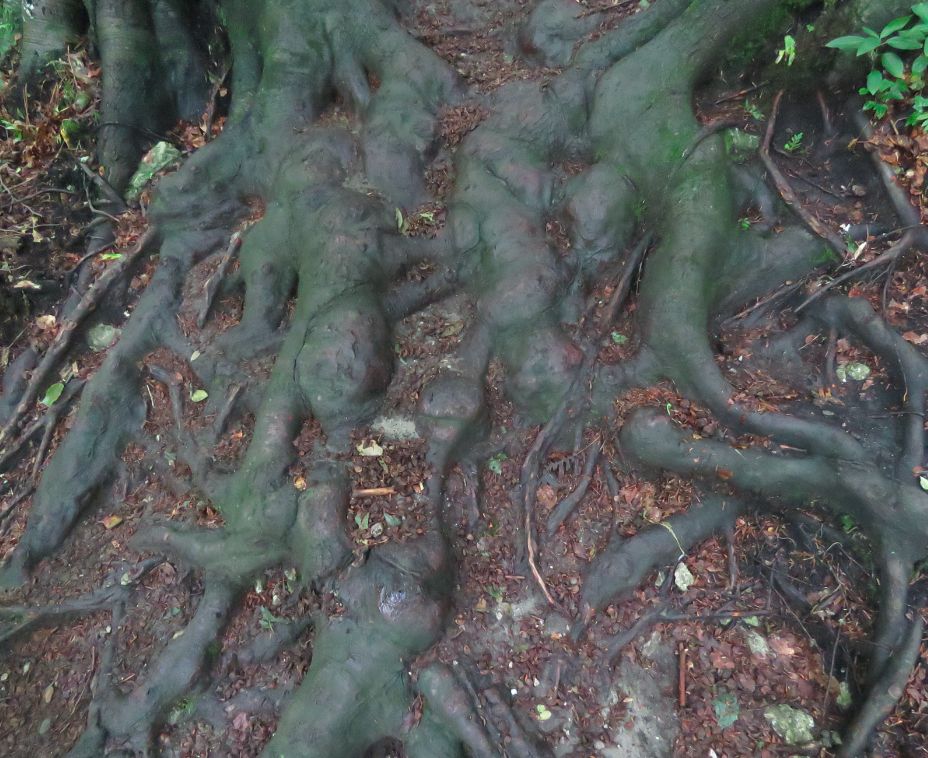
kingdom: Plantae
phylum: Tracheophyta
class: Magnoliopsida
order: Fagales
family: Fagaceae
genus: Fagus
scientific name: Fagus sylvatica
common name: Beech
